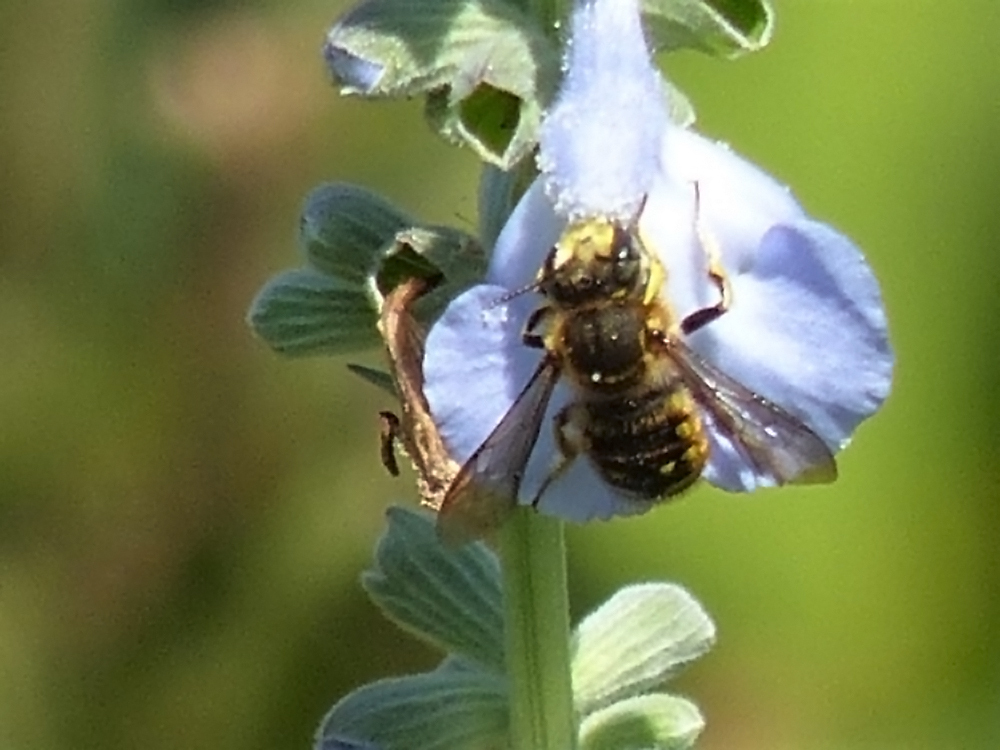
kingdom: Animalia
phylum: Arthropoda
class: Insecta
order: Hymenoptera
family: Megachilidae
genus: Anthidium
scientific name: Anthidium manicatum
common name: Wool carder bee
